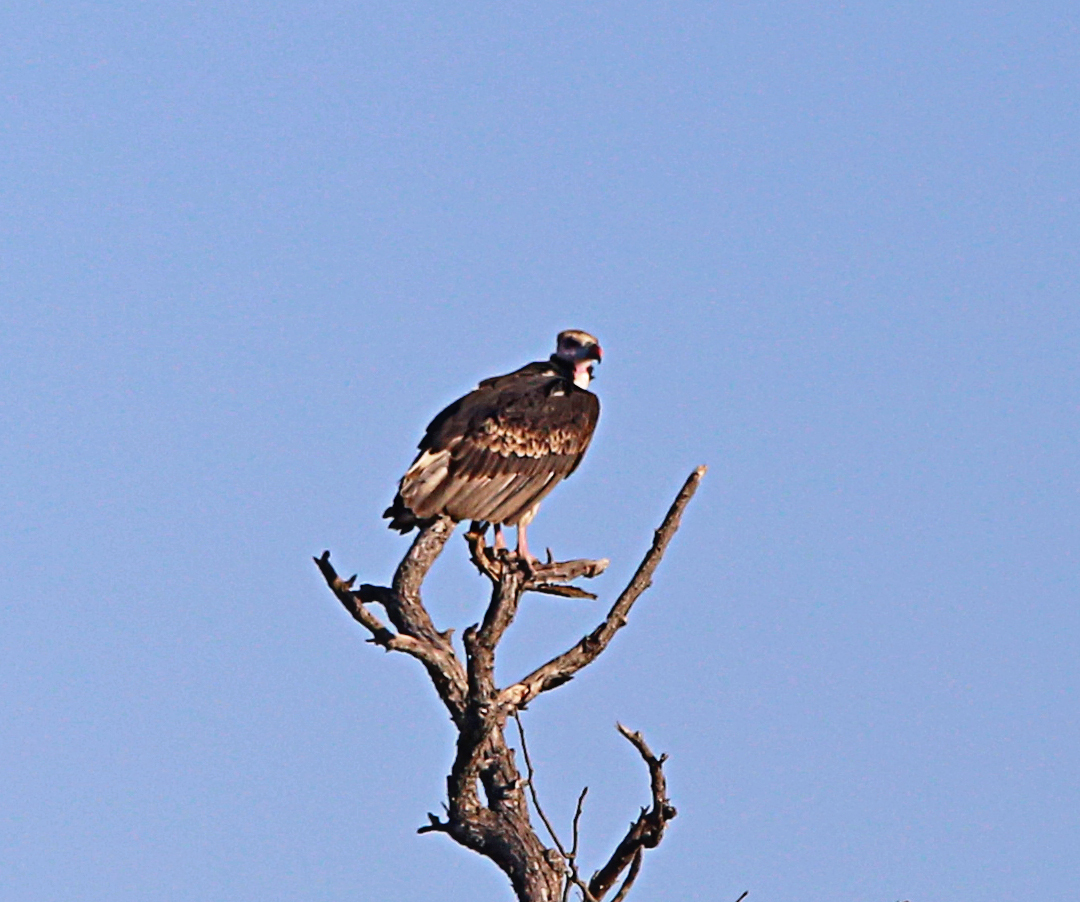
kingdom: Animalia
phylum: Chordata
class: Aves
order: Accipitriformes
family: Accipitridae
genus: Trigonoceps
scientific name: Trigonoceps occipitalis
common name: White-headed vulture
